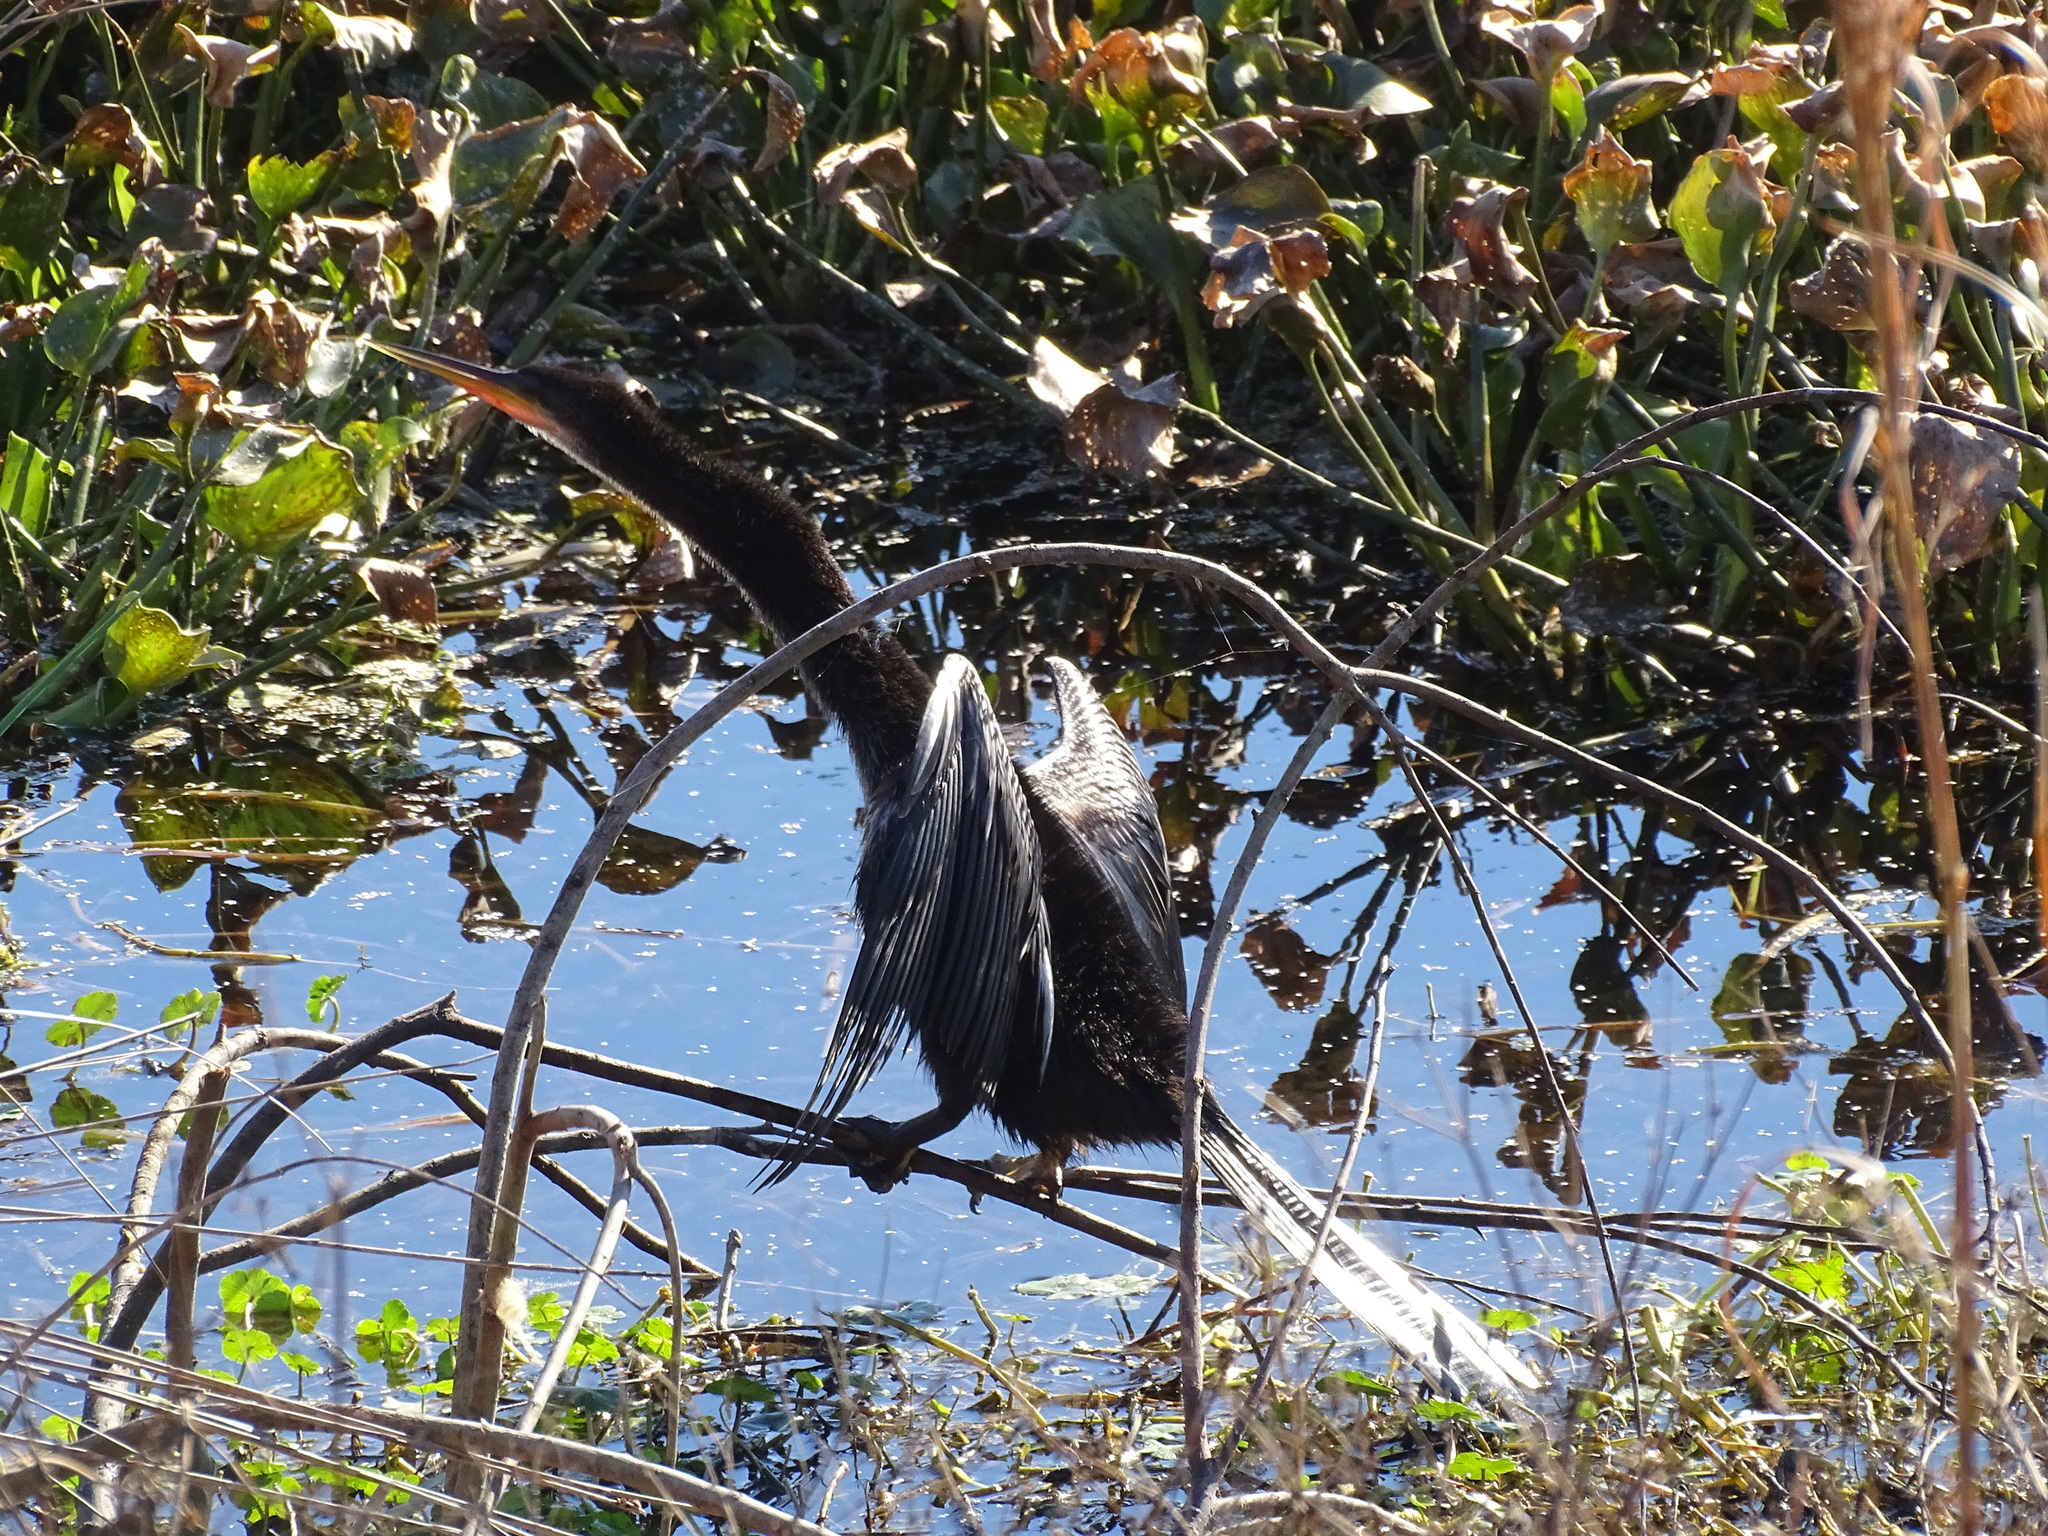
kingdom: Animalia
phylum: Chordata
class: Aves
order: Suliformes
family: Anhingidae
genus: Anhinga
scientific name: Anhinga anhinga
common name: Anhinga
